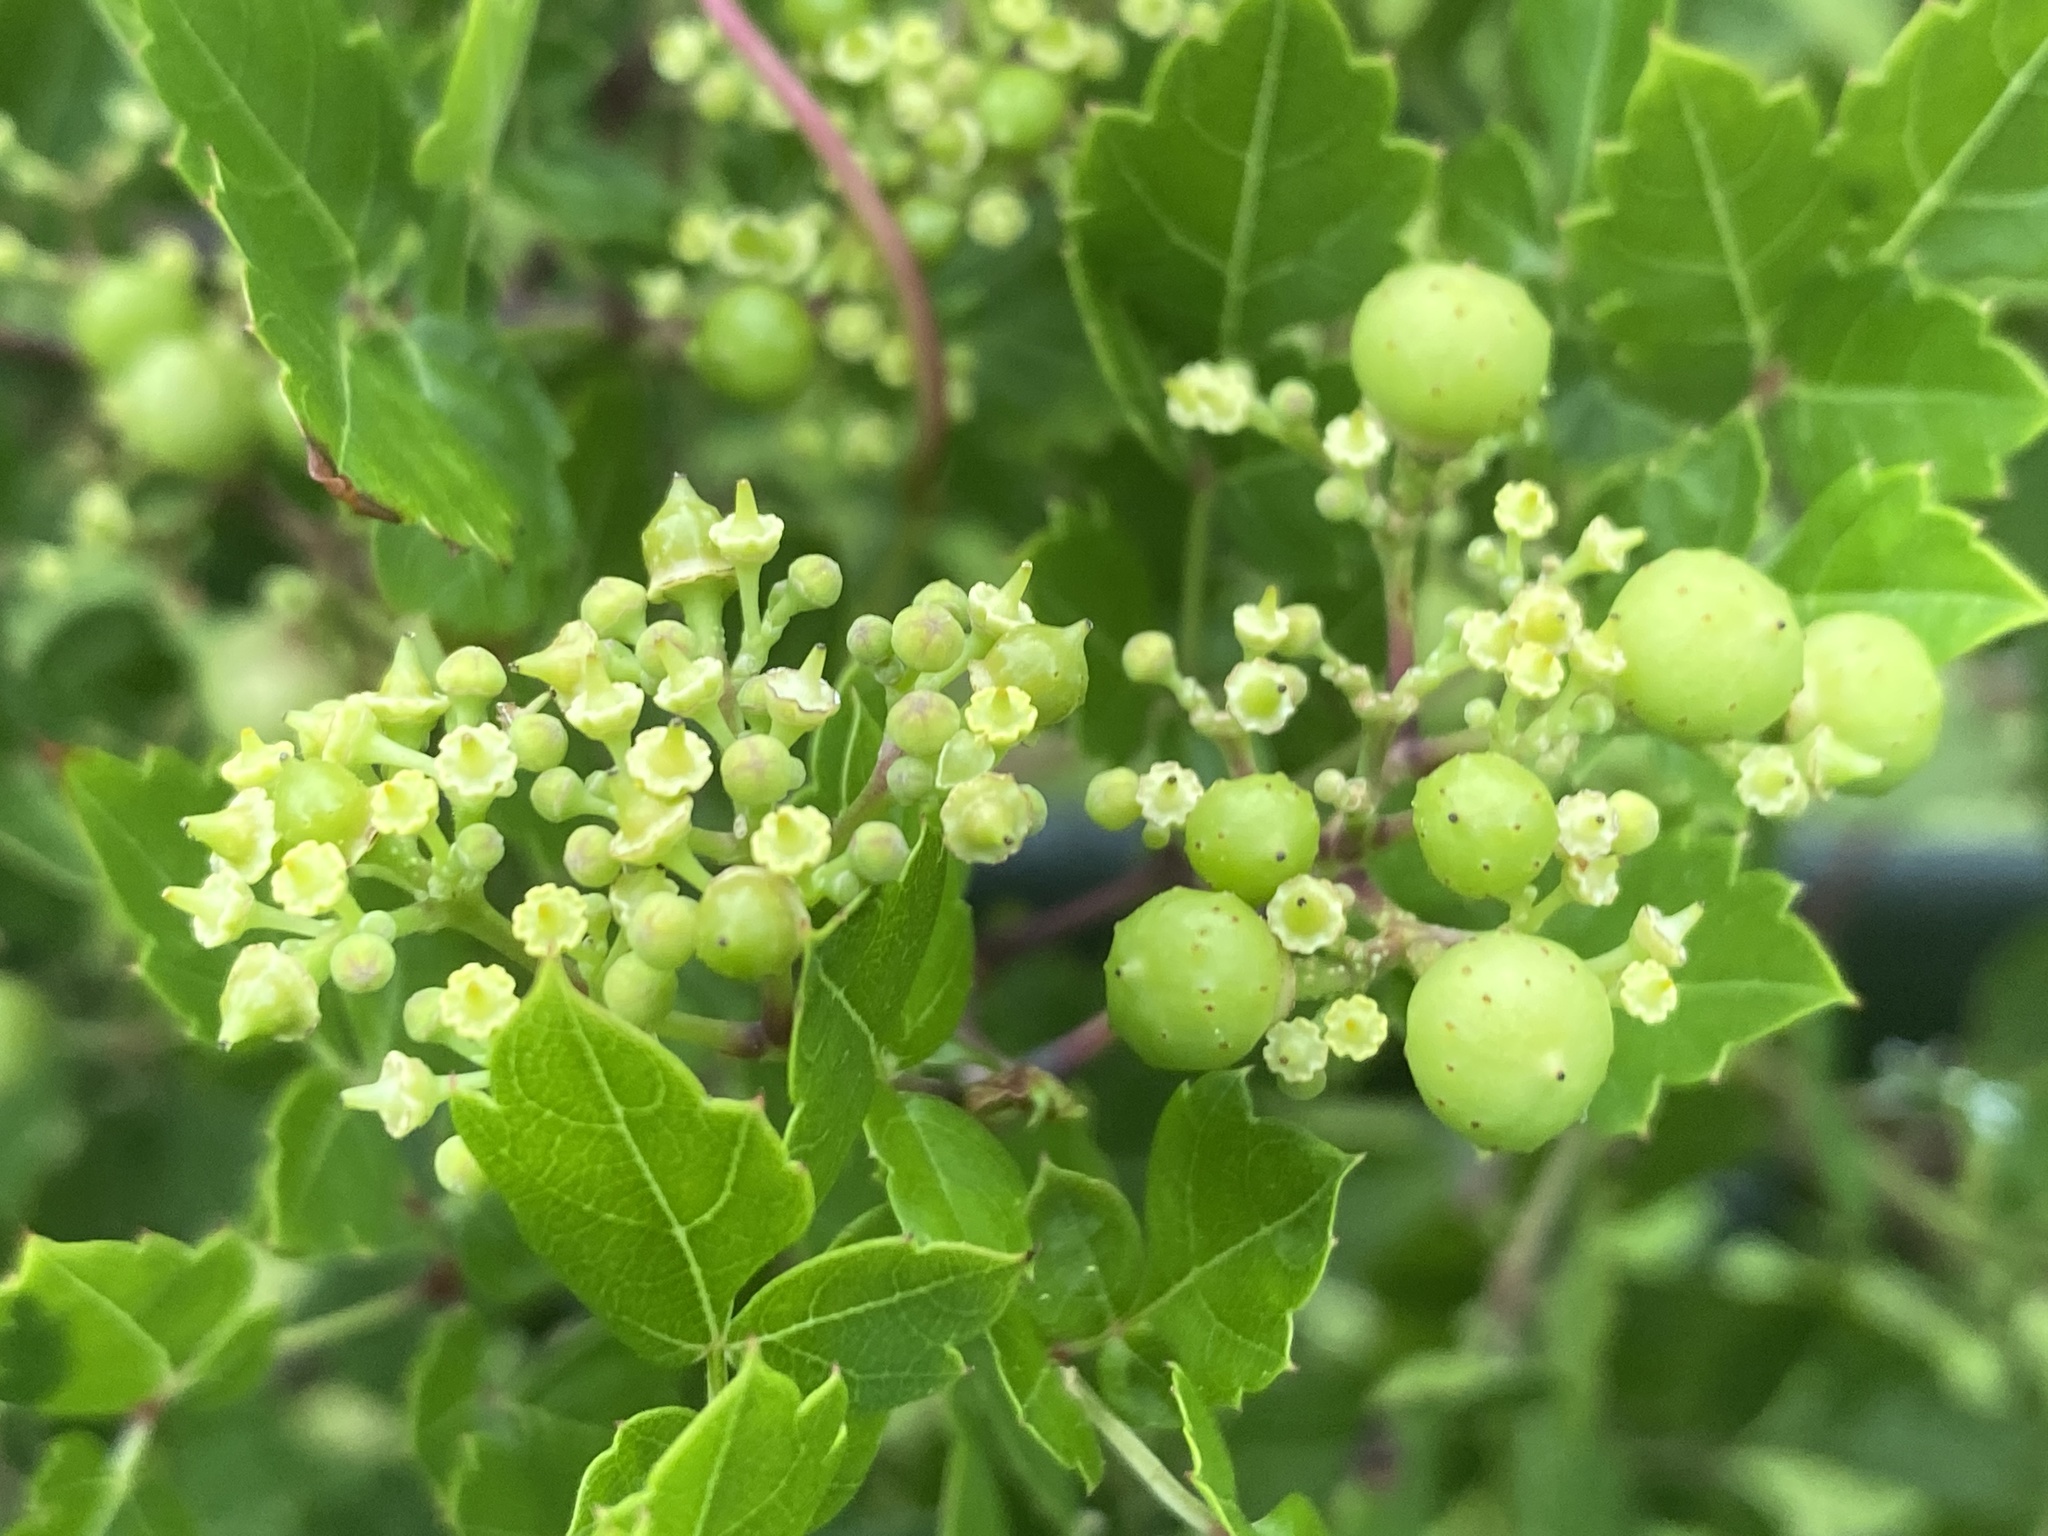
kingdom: Plantae
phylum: Tracheophyta
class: Magnoliopsida
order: Vitales
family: Vitaceae
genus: Nekemias
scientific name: Nekemias arborea
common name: Peppervine
